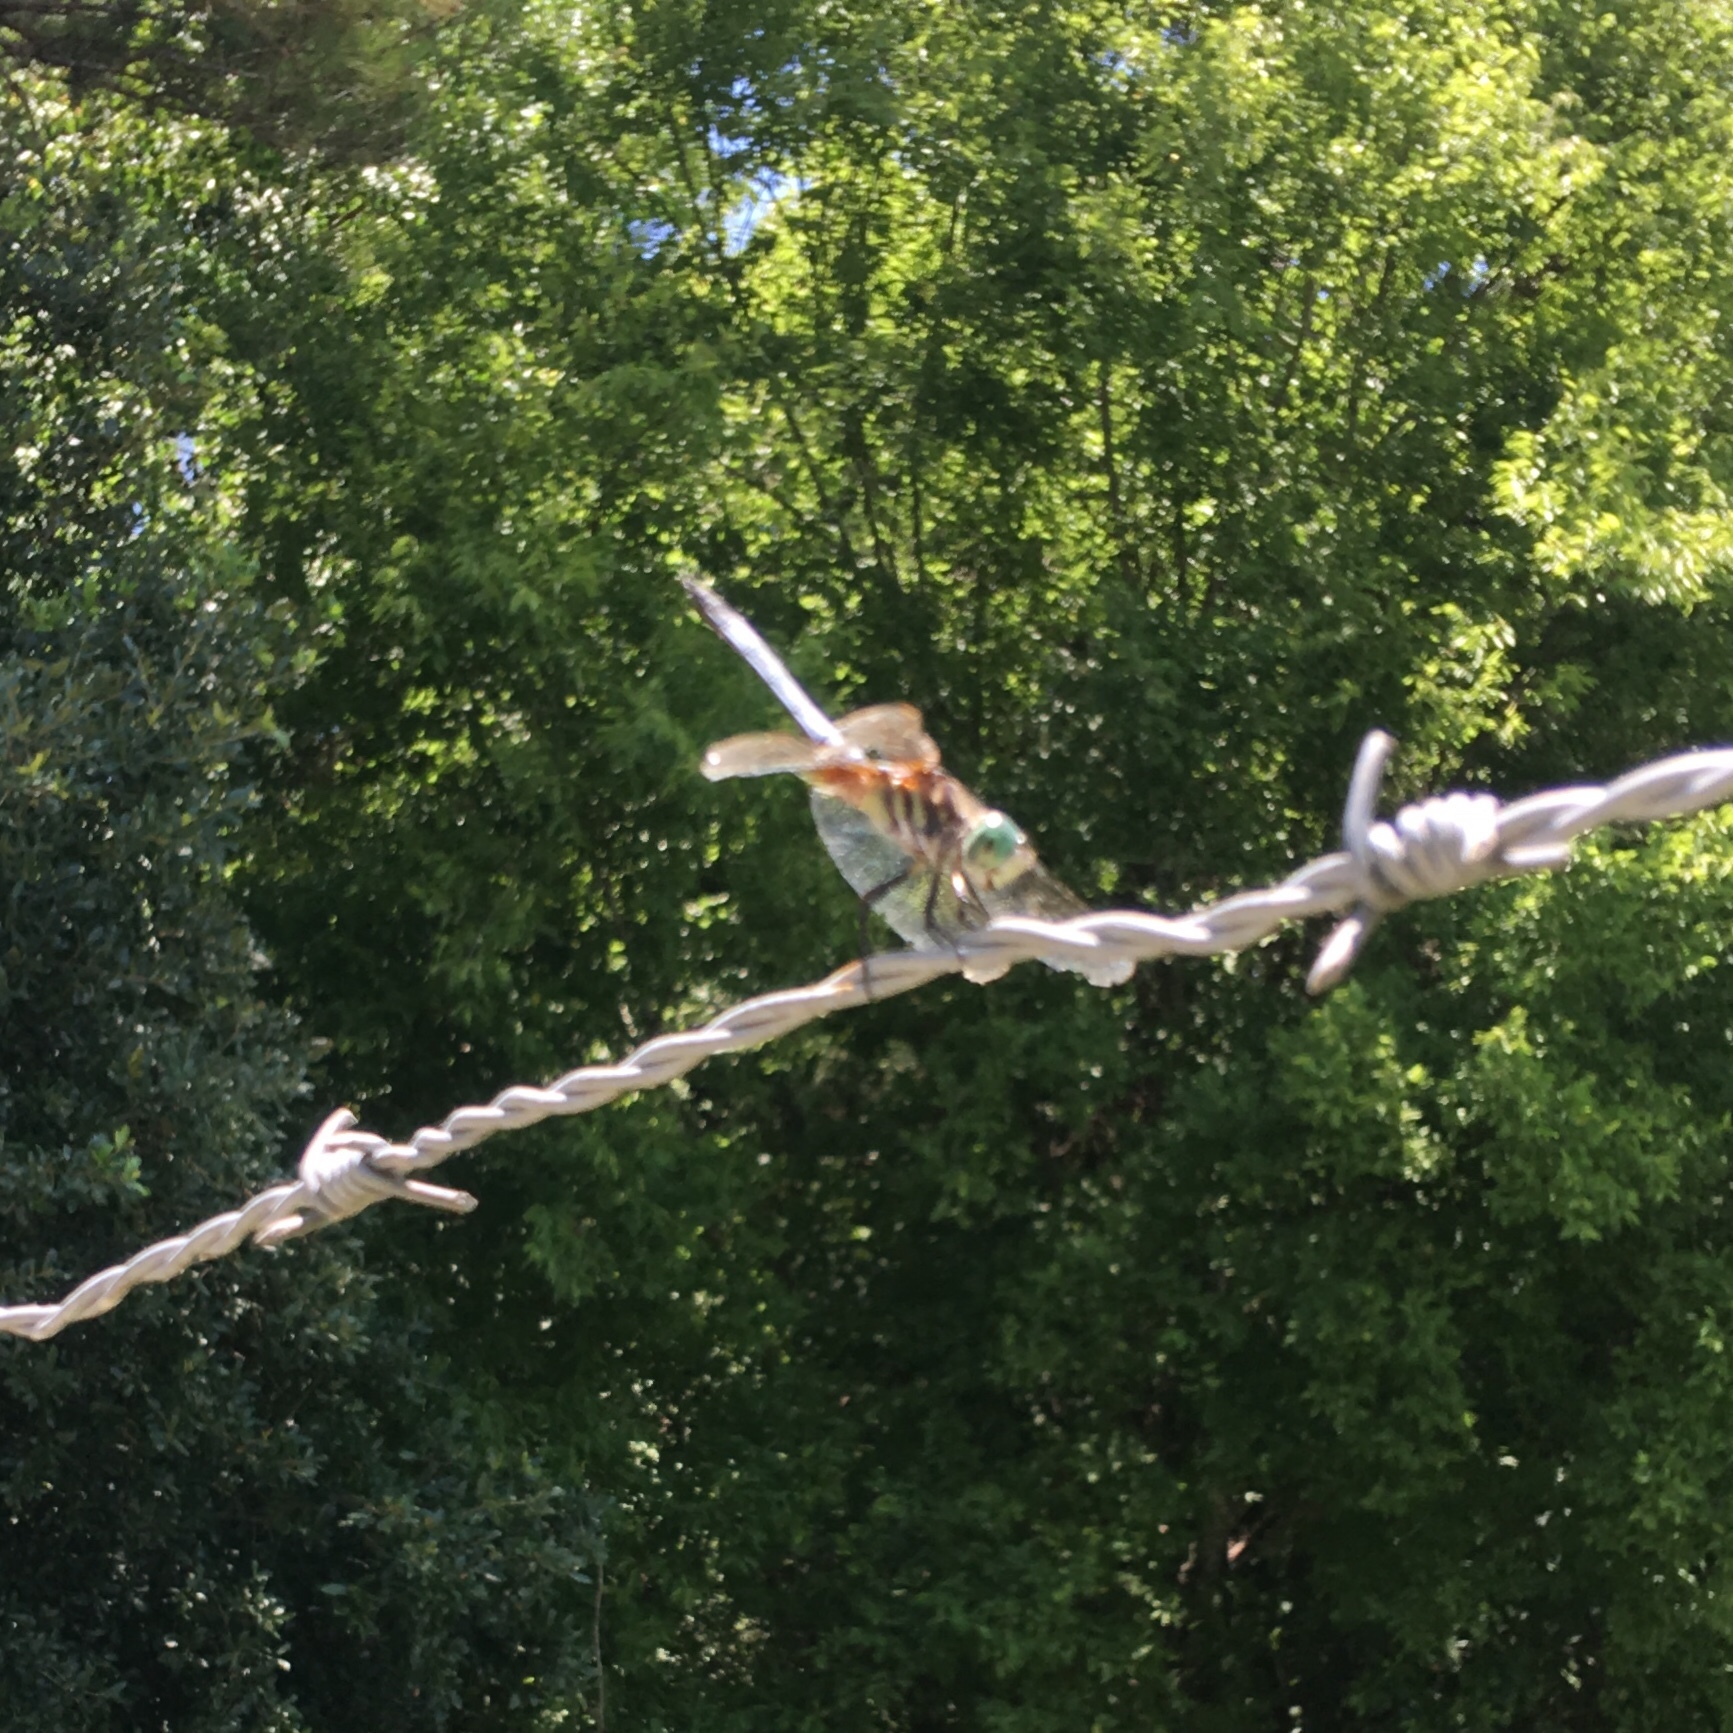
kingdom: Animalia
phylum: Arthropoda
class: Insecta
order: Odonata
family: Libellulidae
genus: Pachydiplax
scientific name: Pachydiplax longipennis
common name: Blue dasher
